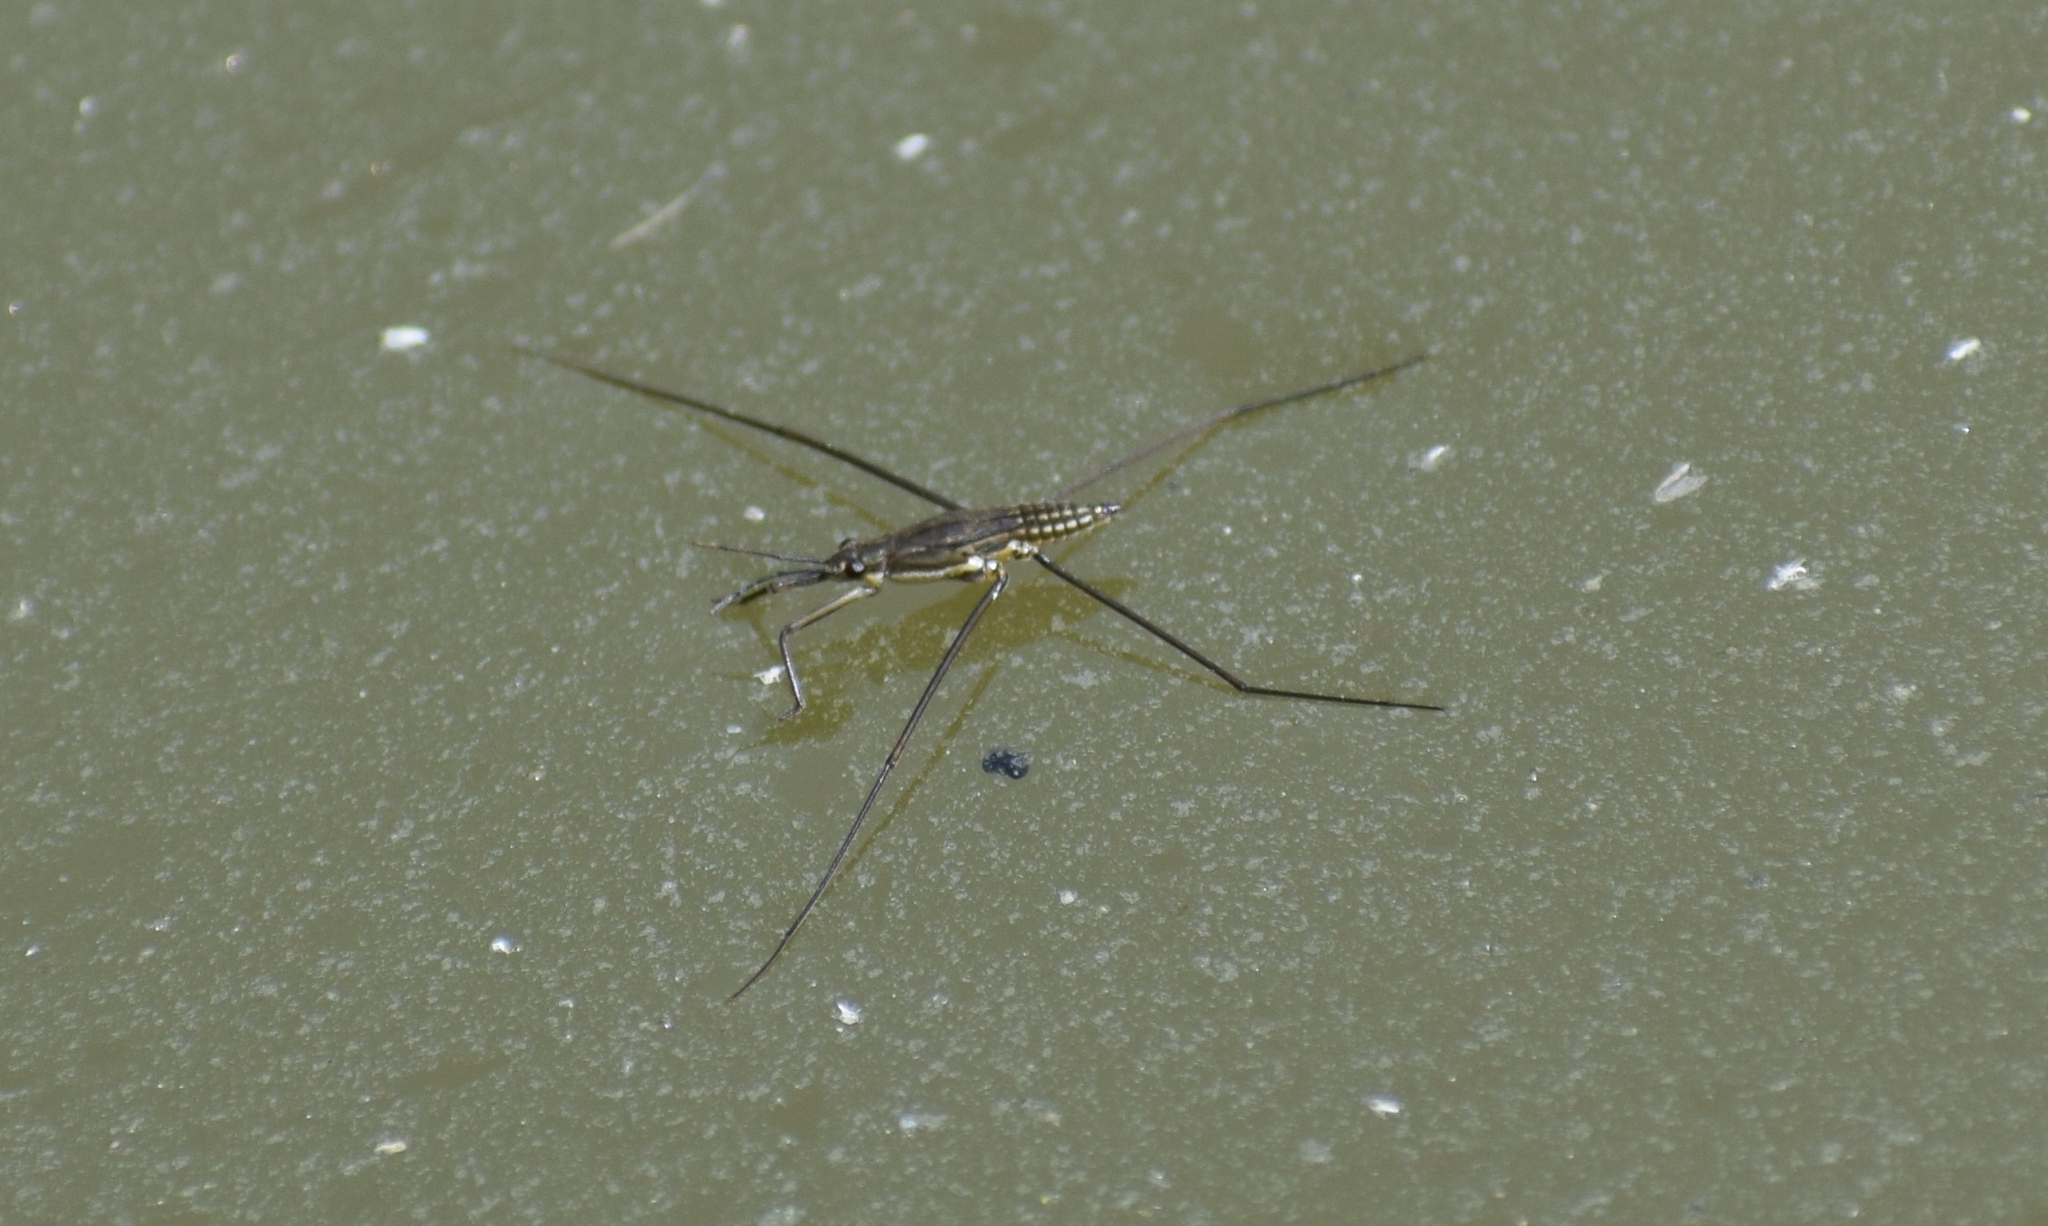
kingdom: Animalia
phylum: Arthropoda
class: Insecta
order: Hemiptera
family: Gerridae
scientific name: Gerridae
